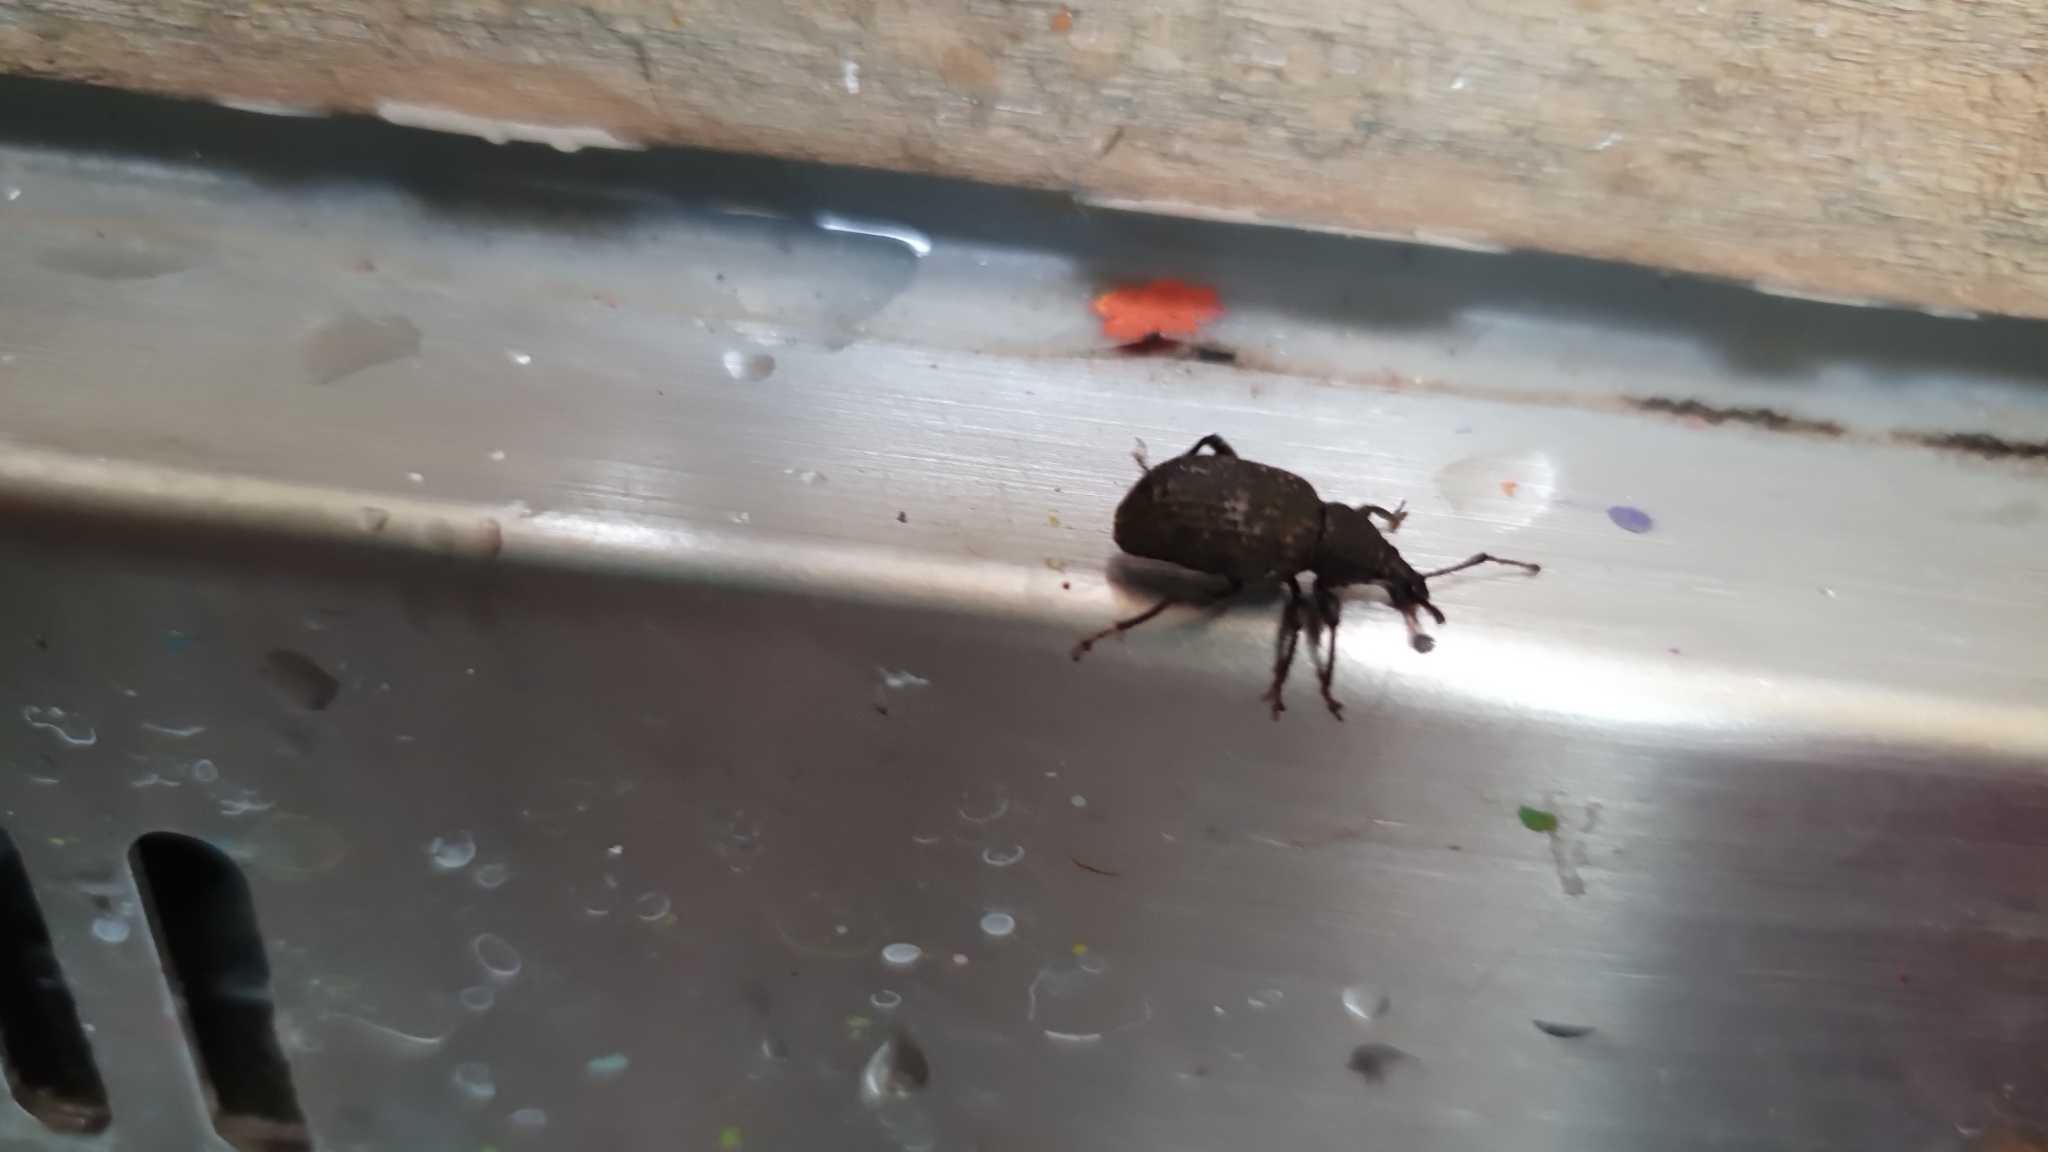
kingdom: Animalia
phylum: Arthropoda
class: Insecta
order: Coleoptera
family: Curculionidae
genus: Otiorhynchus
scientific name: Otiorhynchus sulcatus
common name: Black vine weevil
